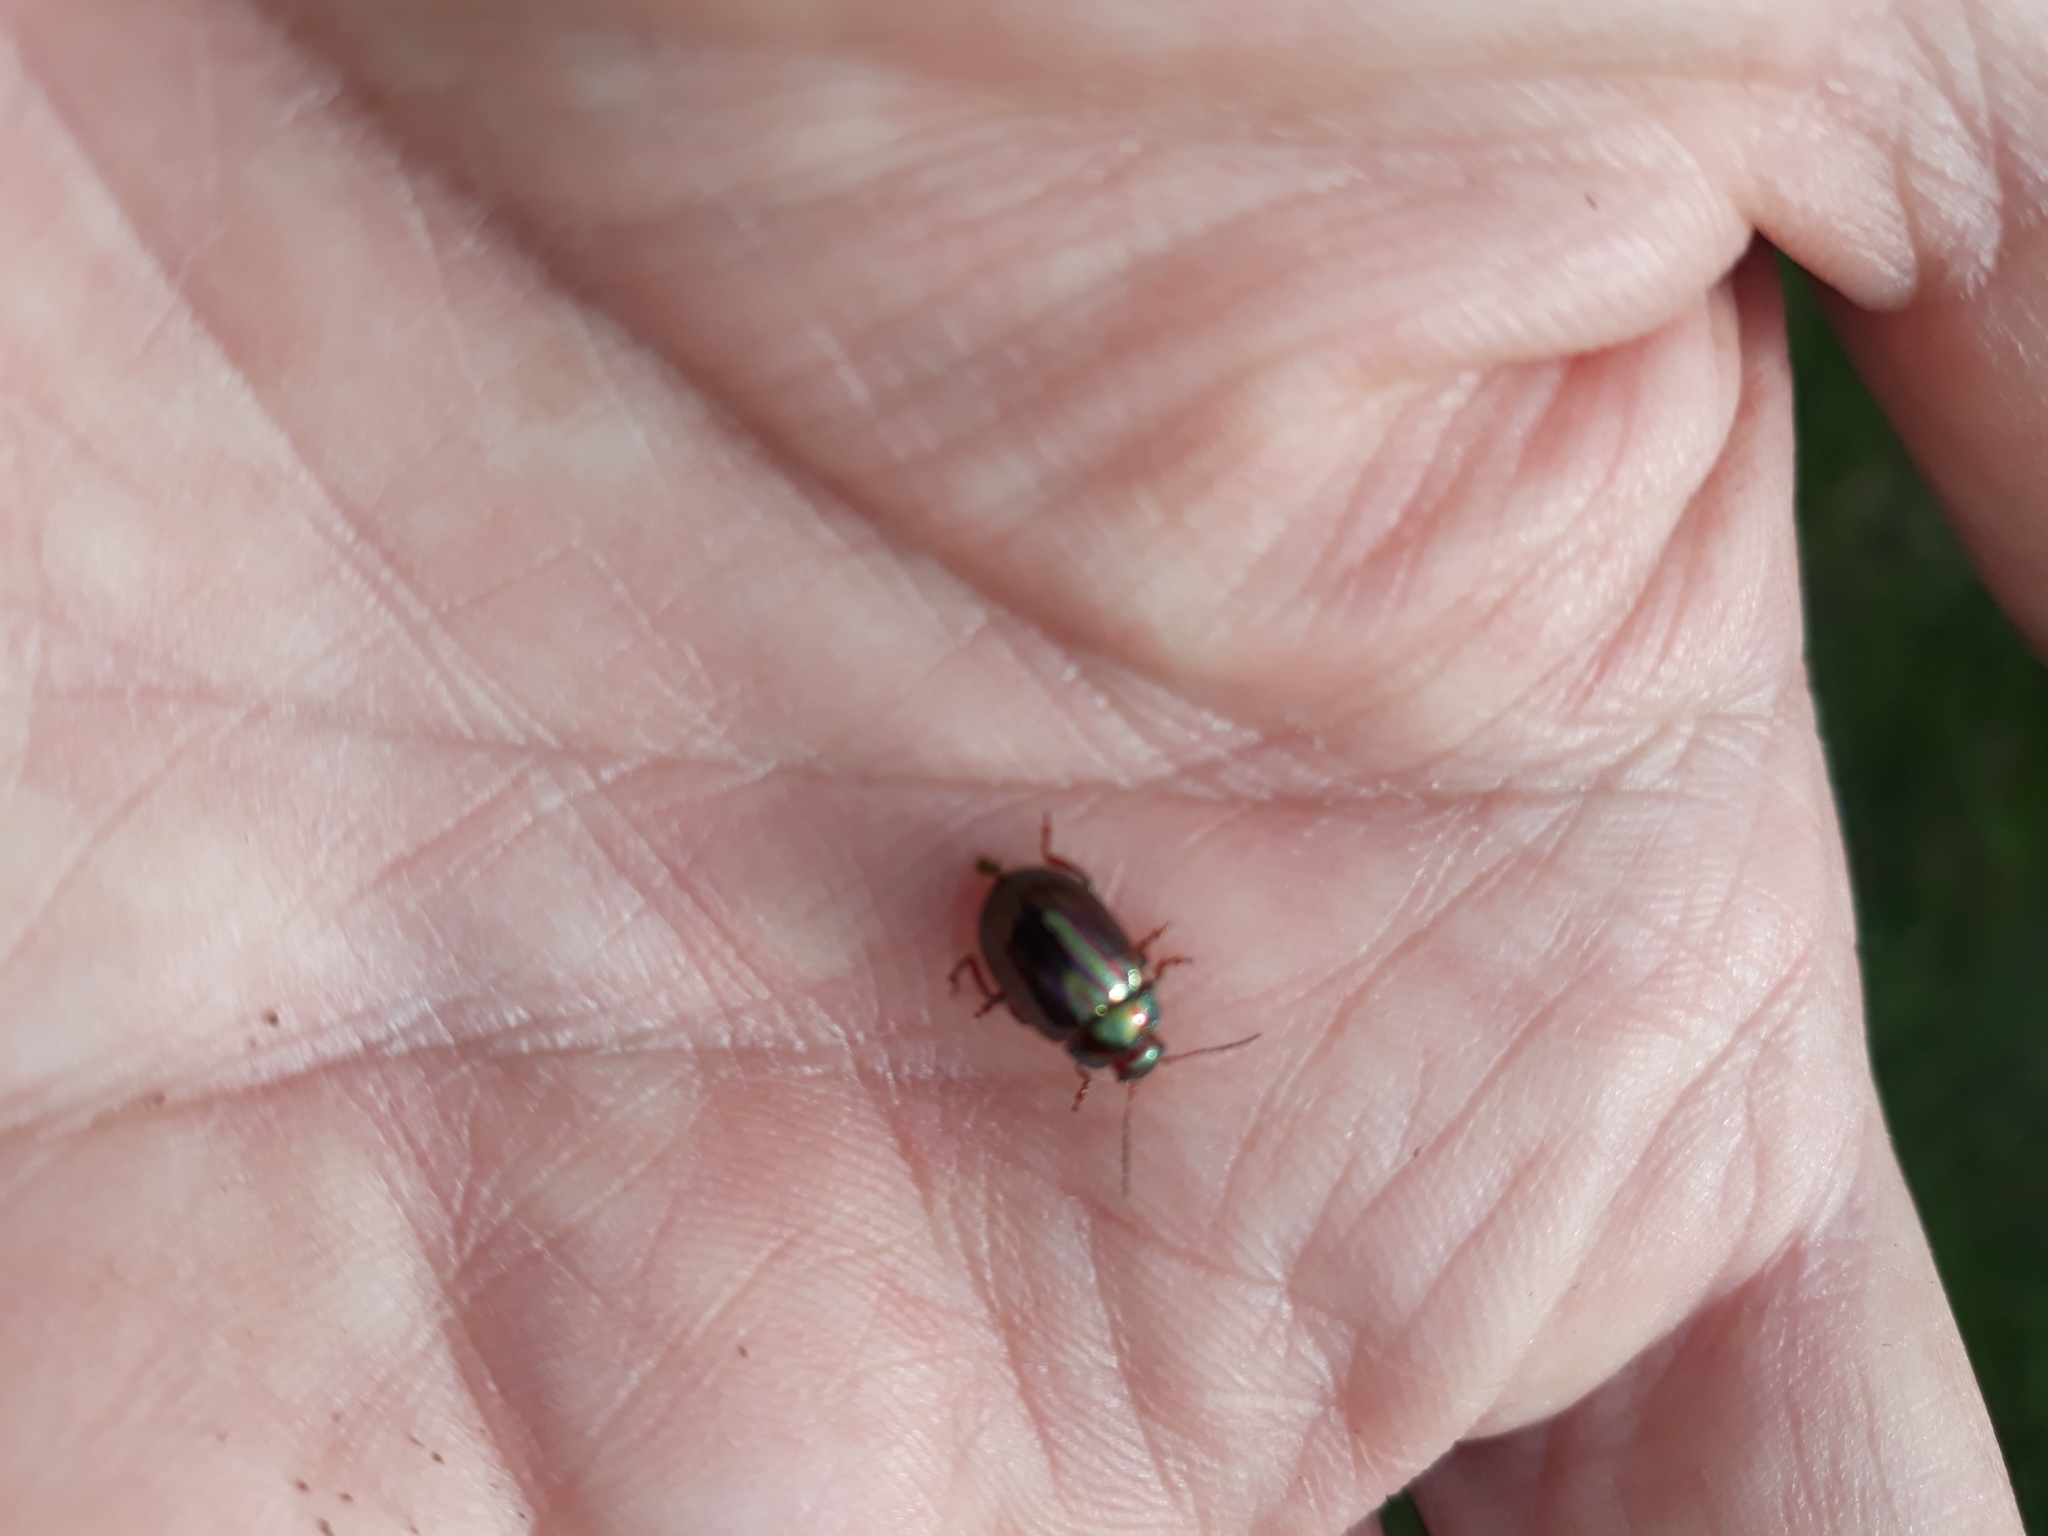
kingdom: Animalia
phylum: Arthropoda
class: Insecta
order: Coleoptera
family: Chrysomelidae
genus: Chrysolina
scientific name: Chrysolina americana
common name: Rosemary beetle
